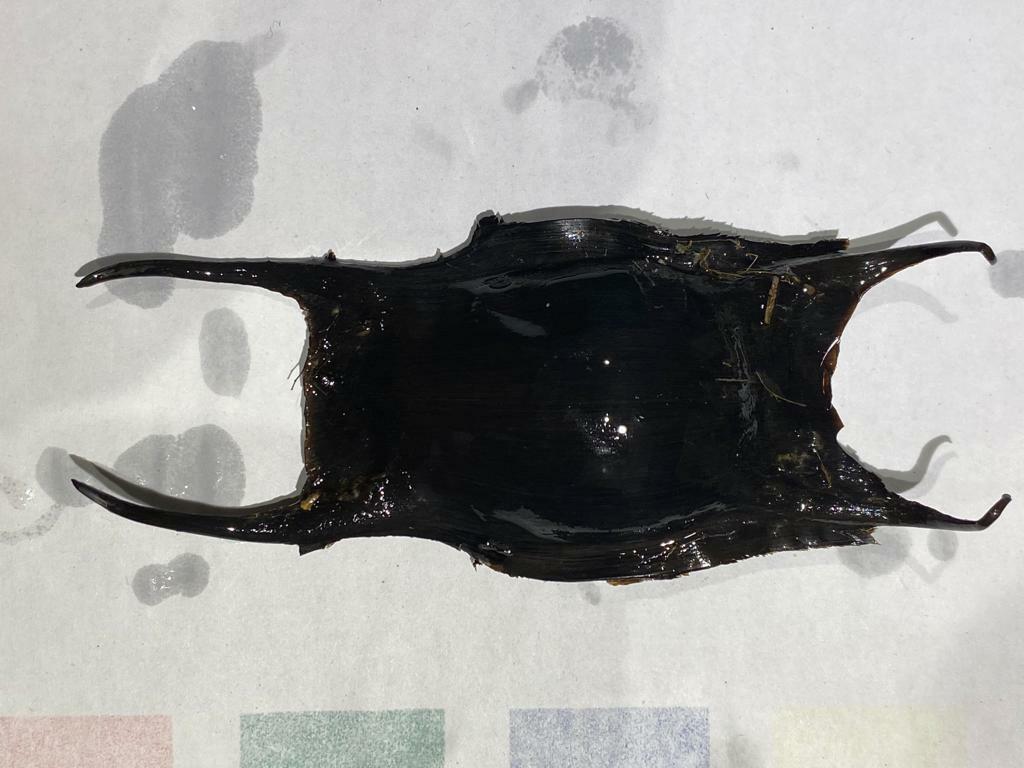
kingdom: Animalia
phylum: Chordata
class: Elasmobranchii
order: Rajiformes
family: Rajidae
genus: Raja
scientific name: Raja clavata
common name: Thornback ray
